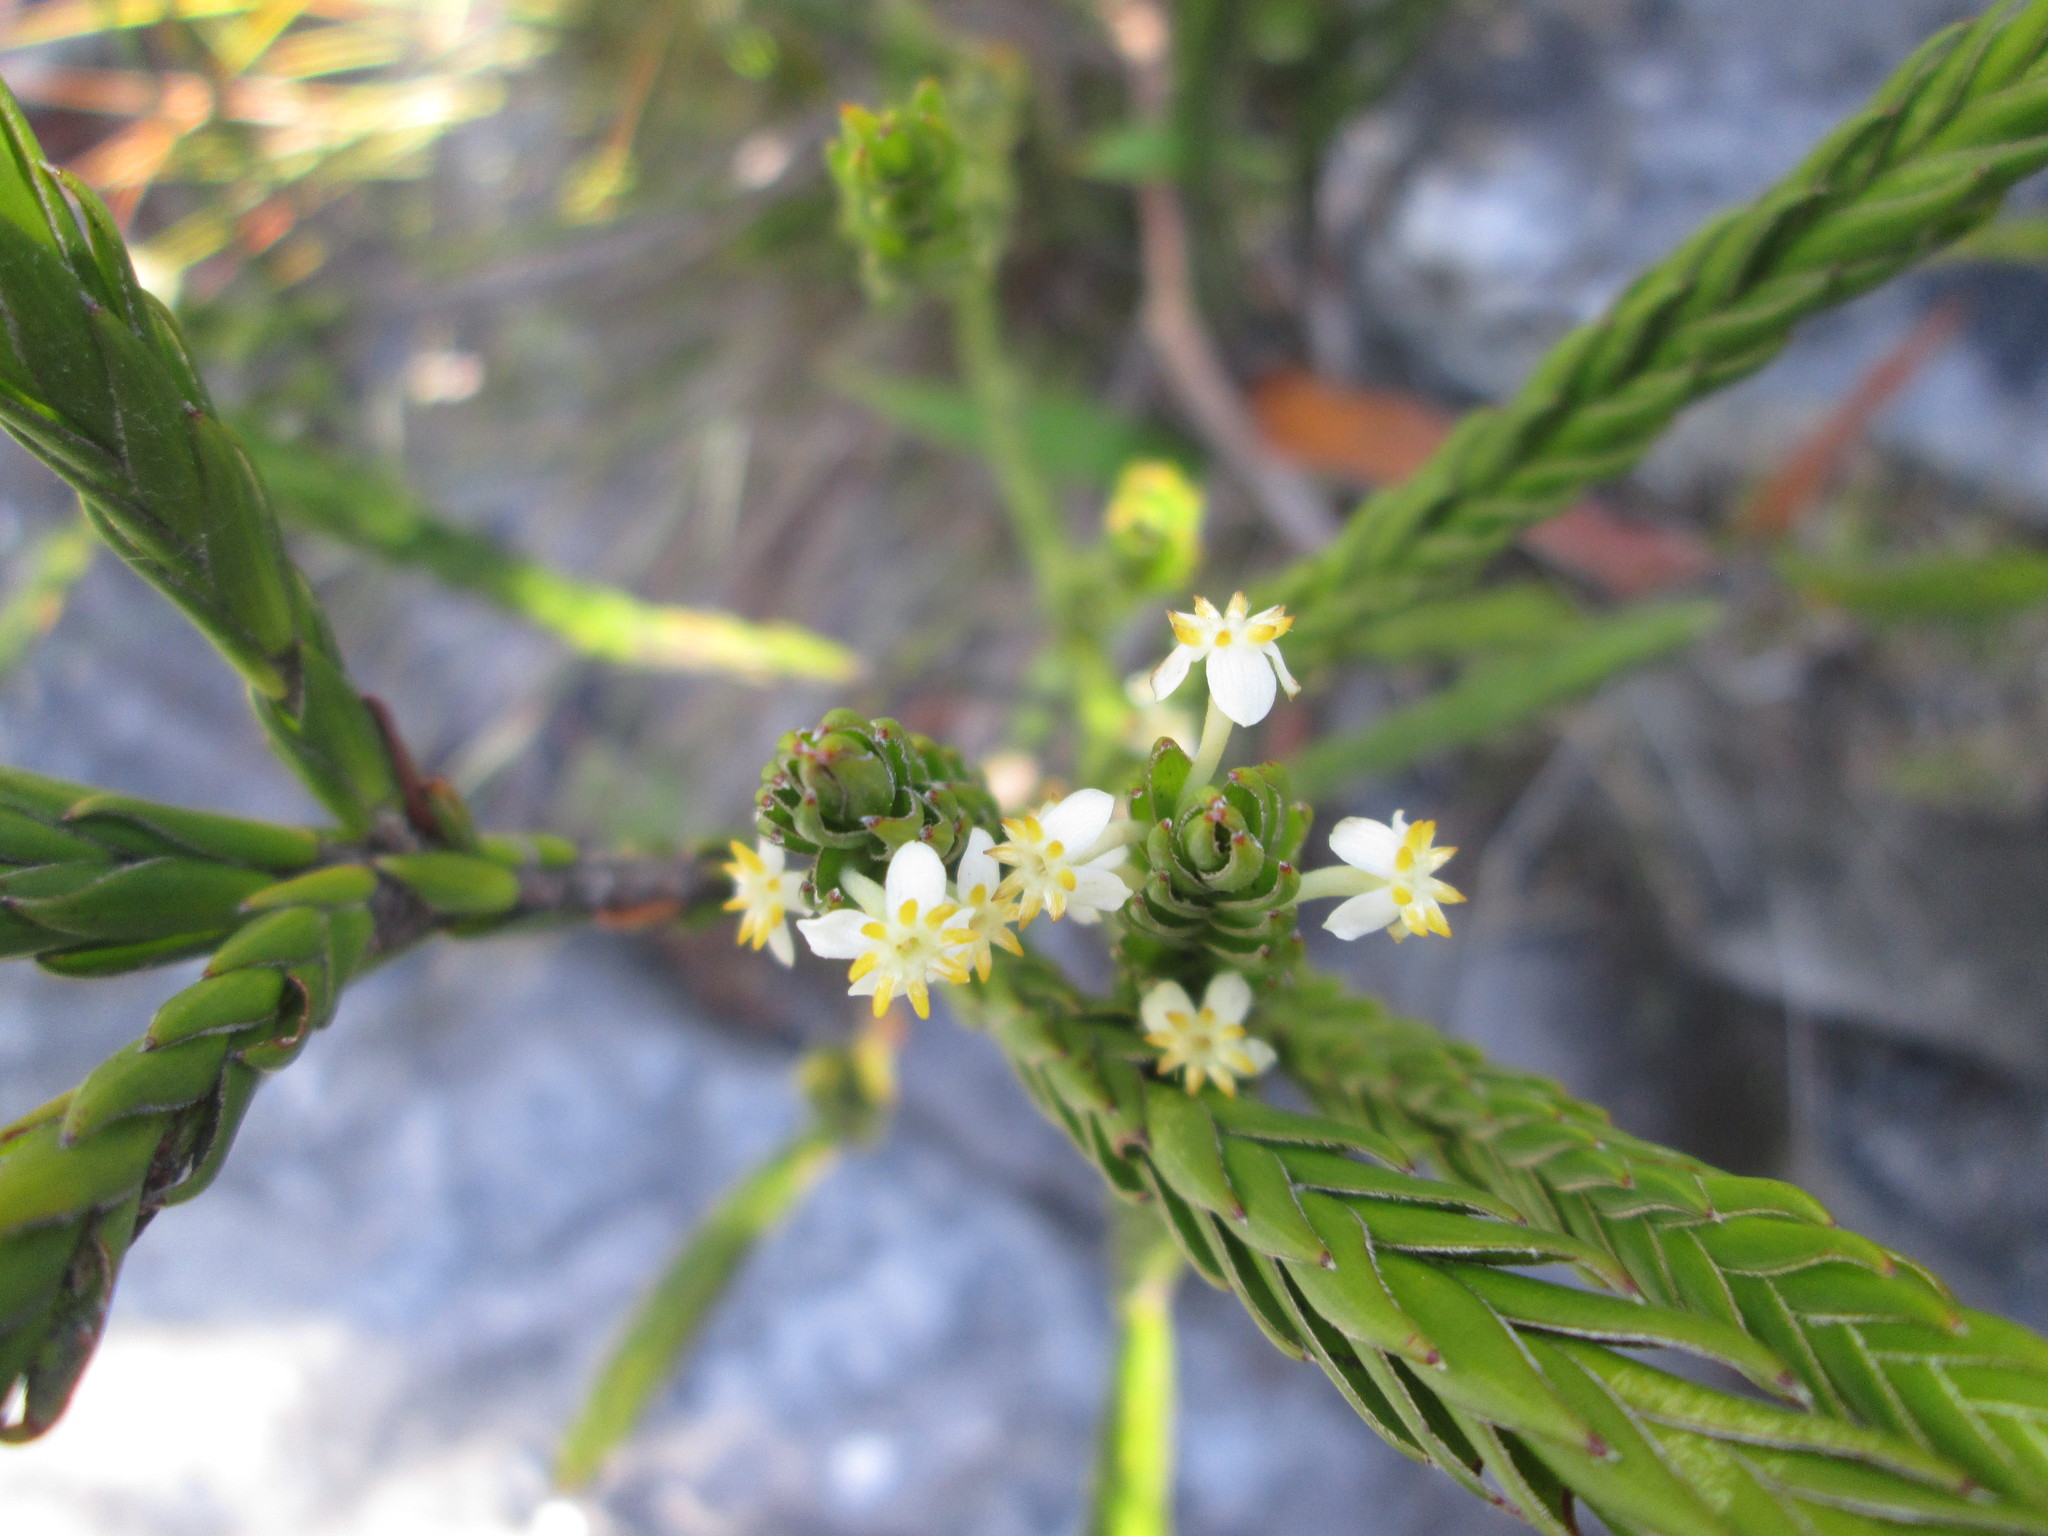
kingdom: Plantae
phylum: Tracheophyta
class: Magnoliopsida
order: Malvales
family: Thymelaeaceae
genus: Struthiola
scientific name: Struthiola ciliata
